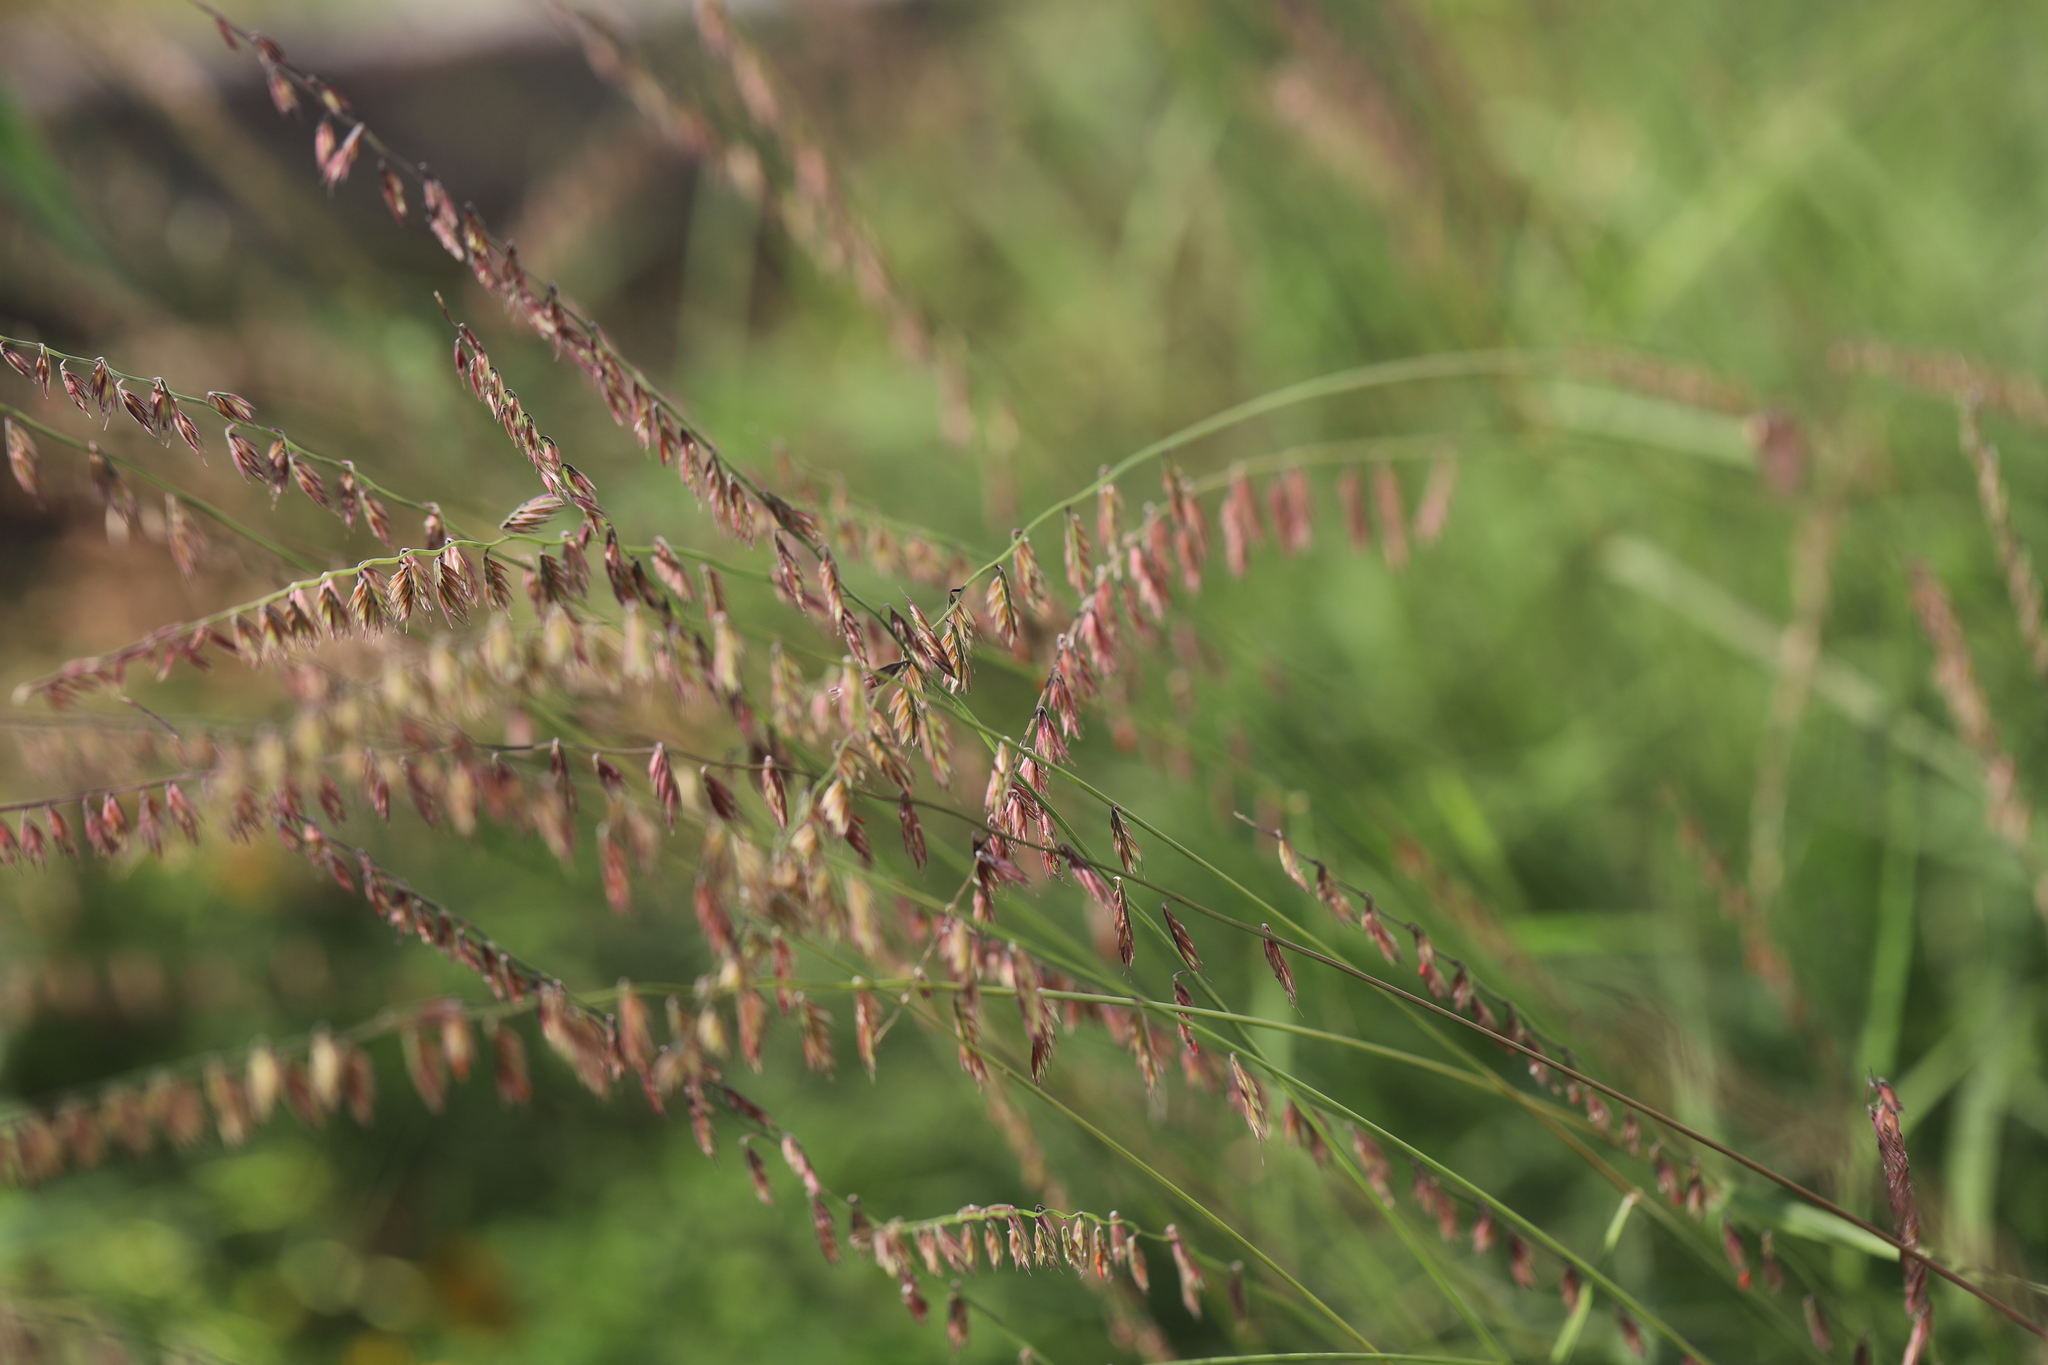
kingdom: Plantae
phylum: Tracheophyta
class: Liliopsida
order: Poales
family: Poaceae
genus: Bouteloua
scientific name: Bouteloua curtipendula
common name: Side-oats grama
